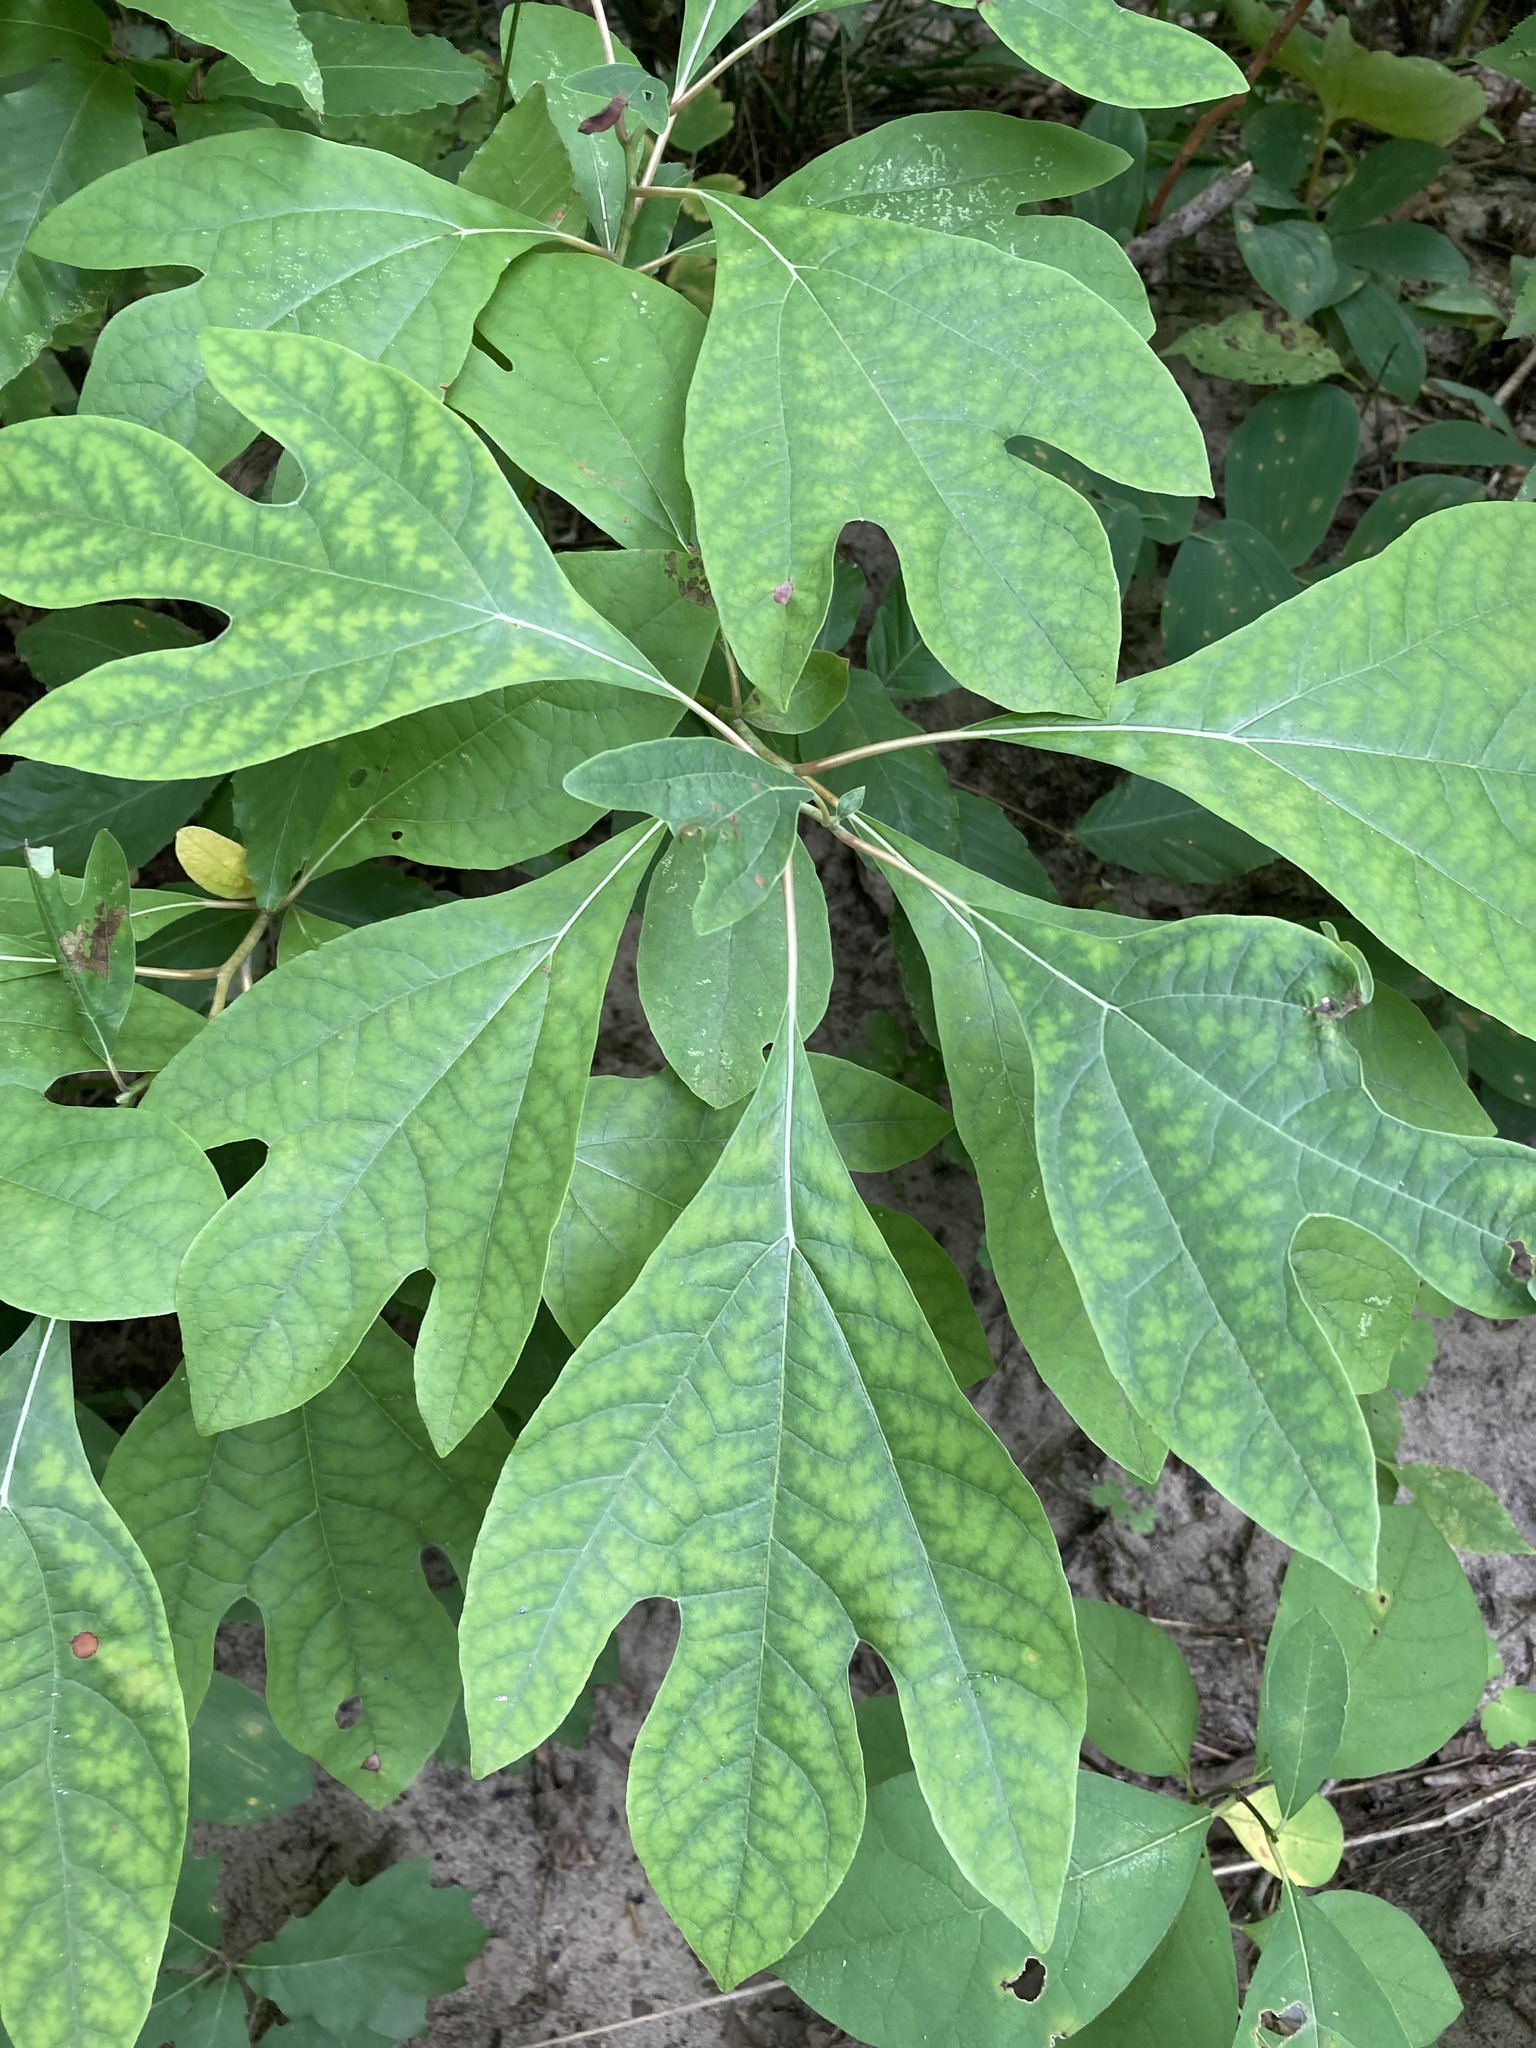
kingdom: Plantae
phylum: Tracheophyta
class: Magnoliopsida
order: Laurales
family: Lauraceae
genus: Sassafras
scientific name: Sassafras albidum
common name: Sassafras
